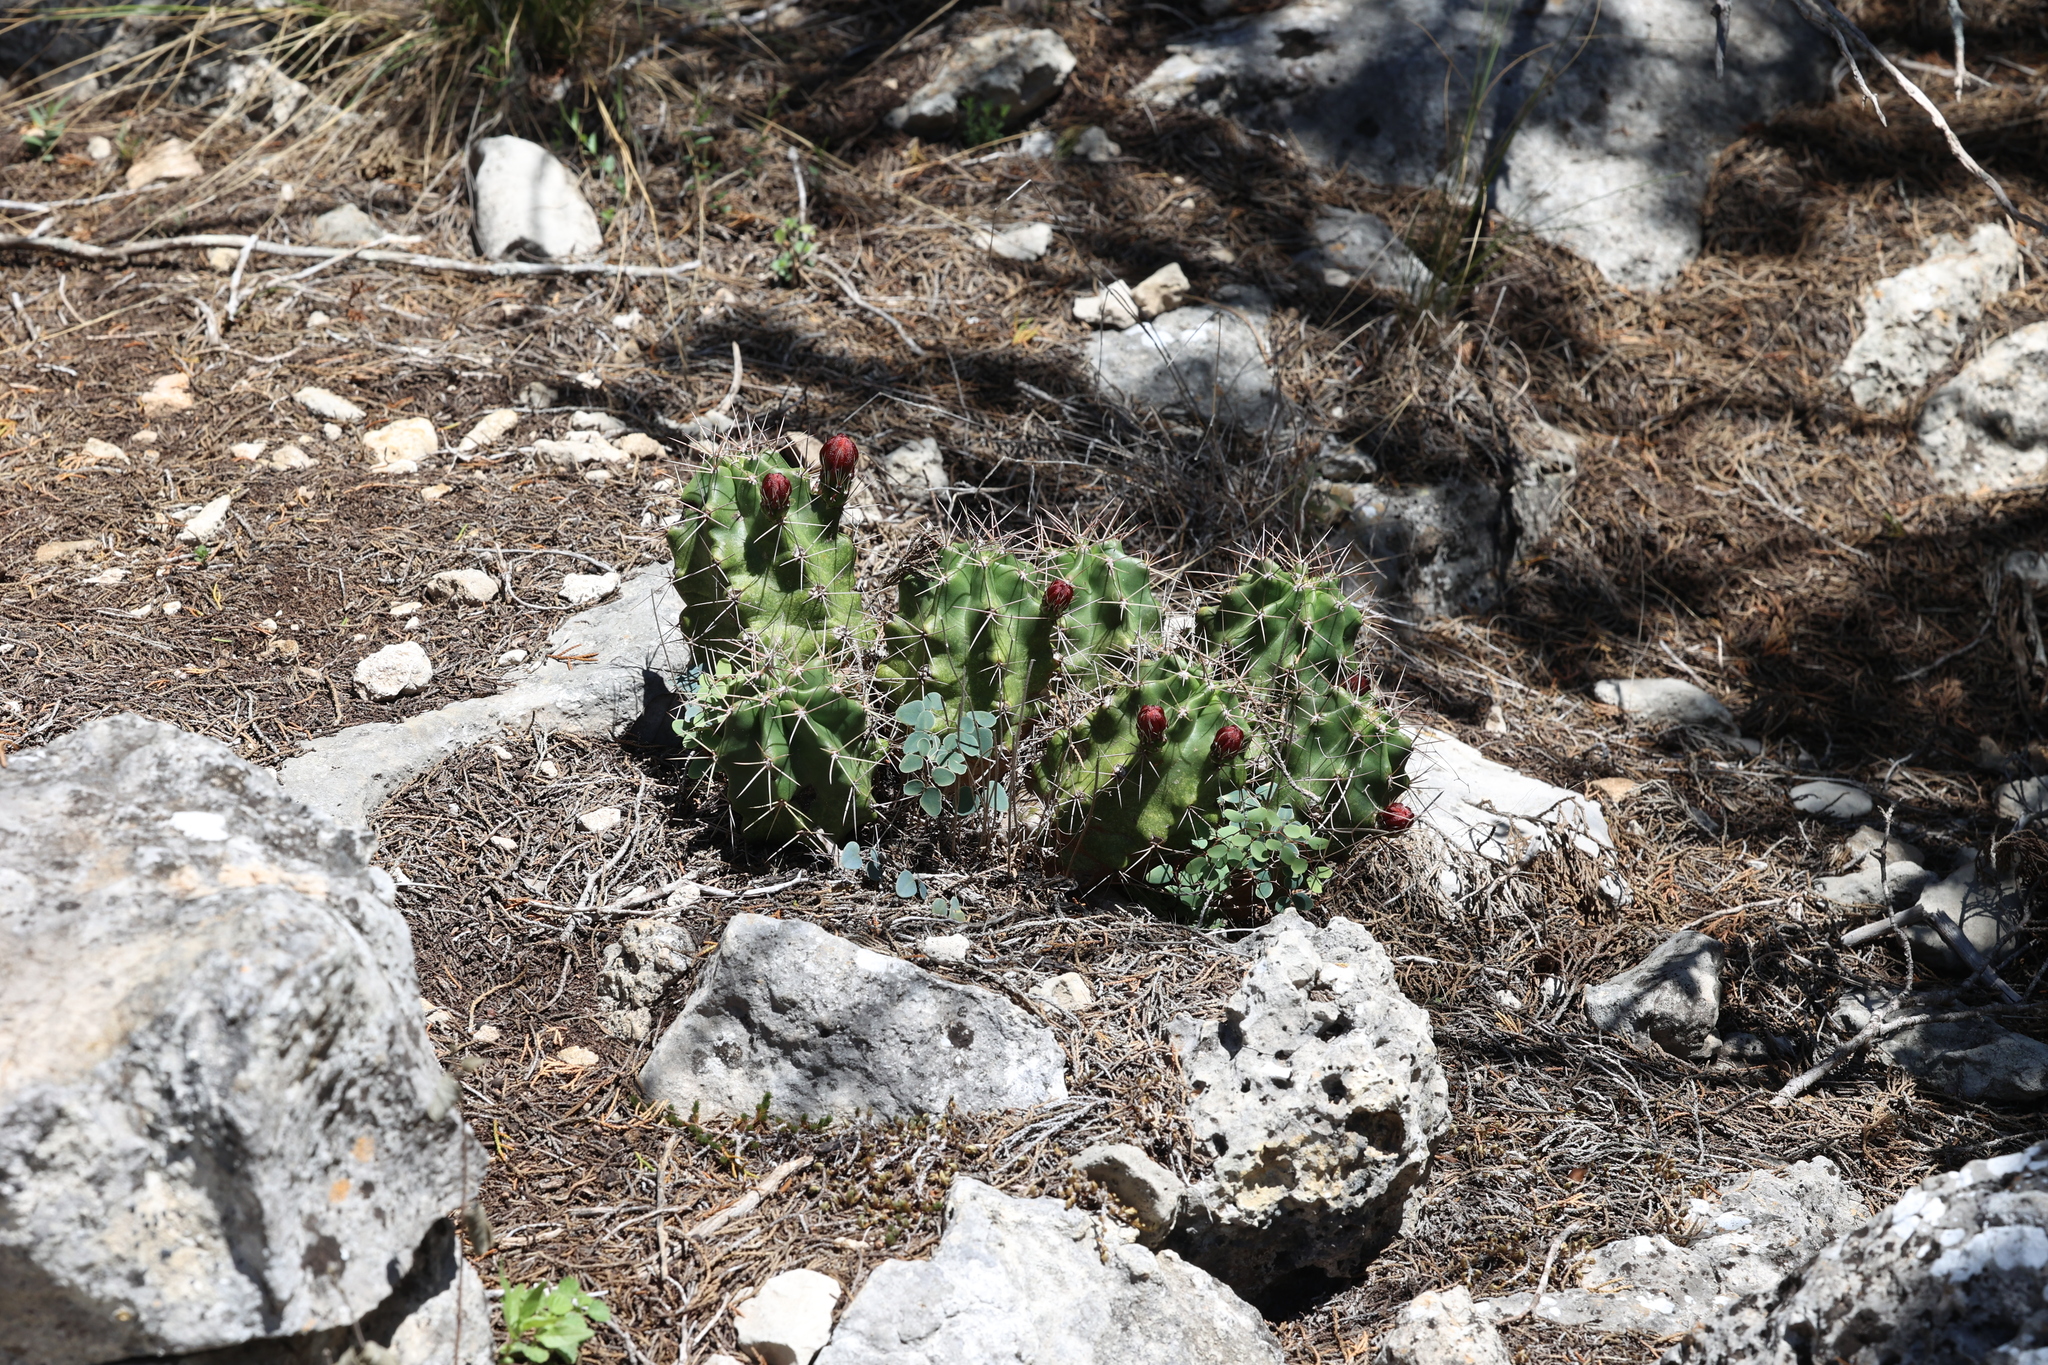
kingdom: Plantae
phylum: Tracheophyta
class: Magnoliopsida
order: Caryophyllales
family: Cactaceae
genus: Echinocereus
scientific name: Echinocereus coccineus
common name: Scarlet hedgehog cactus
